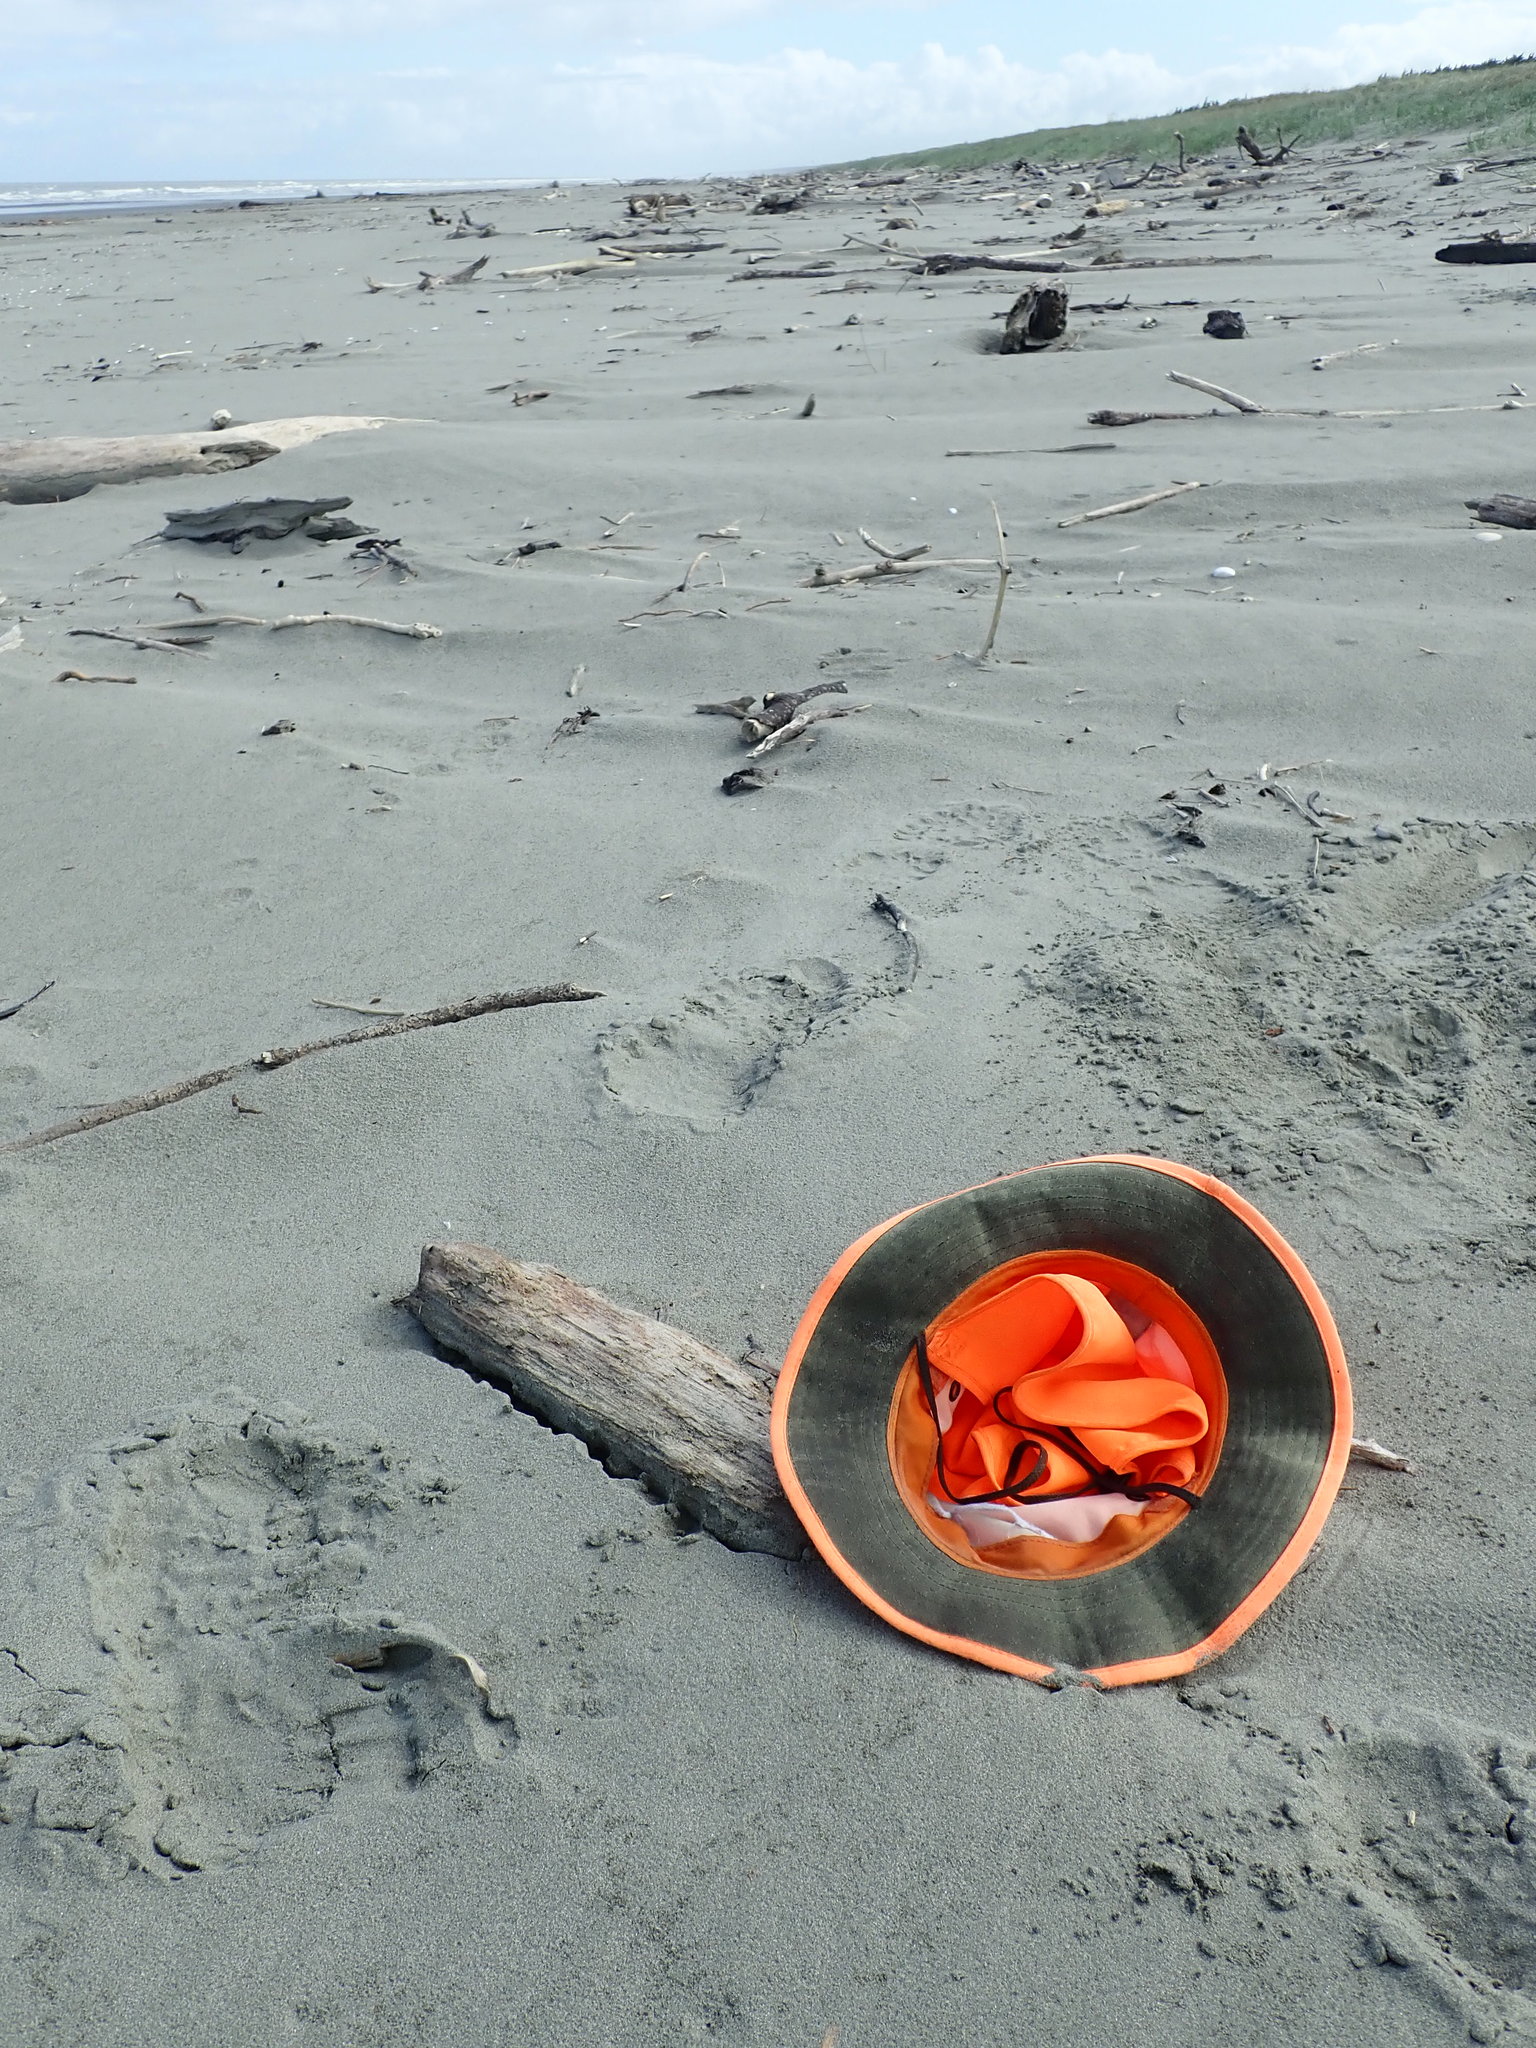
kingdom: Animalia
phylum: Arthropoda
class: Insecta
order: Coleoptera
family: Curculionidae
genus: Mesites
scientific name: Mesites pallidipennis
